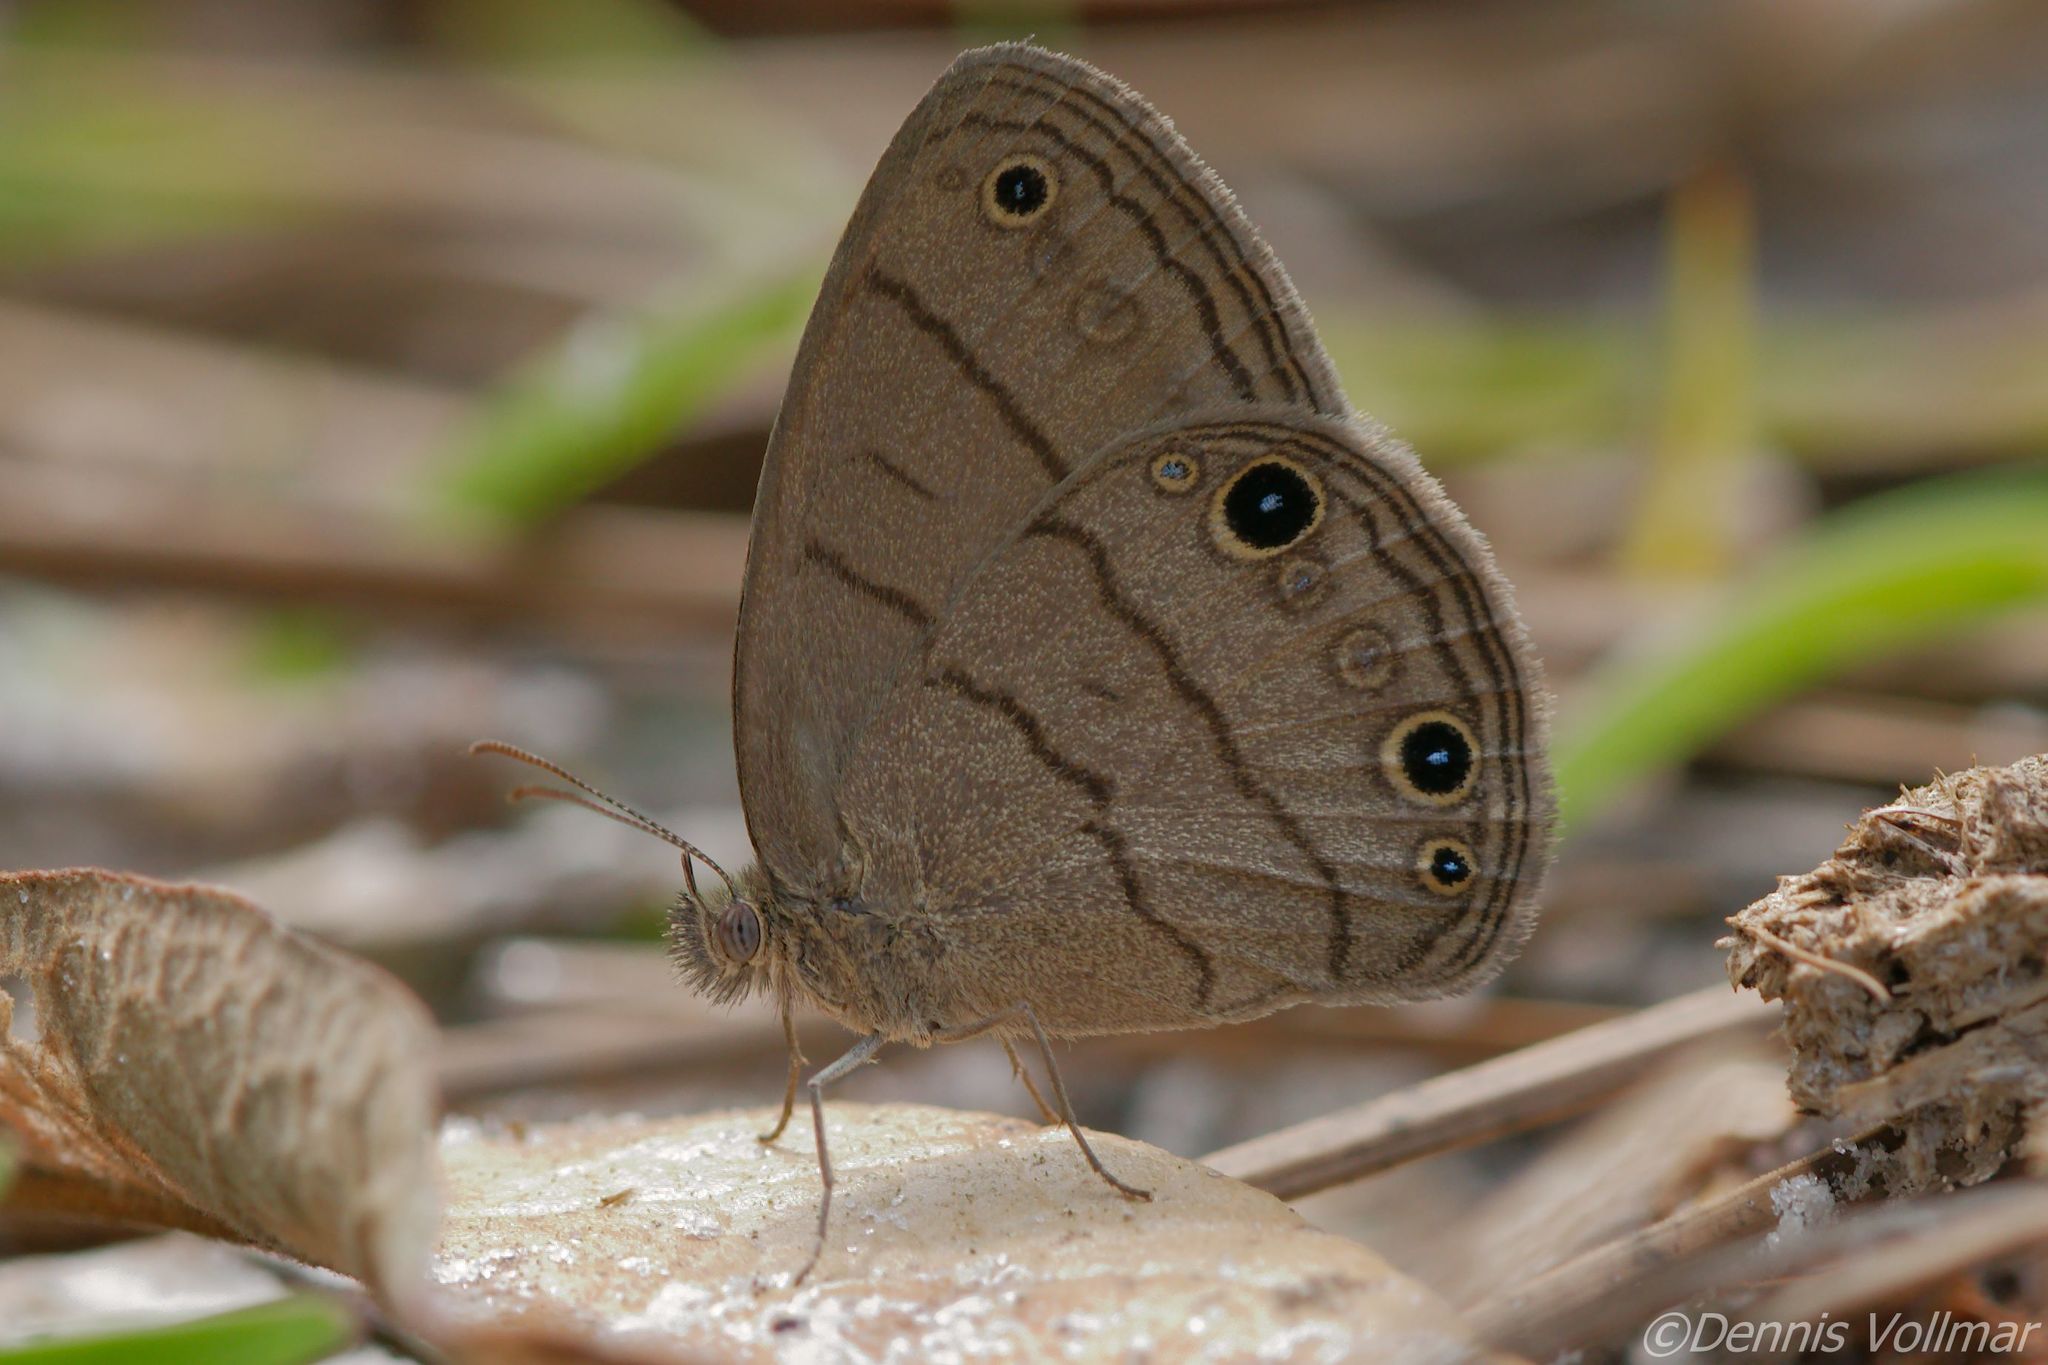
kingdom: Animalia
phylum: Arthropoda
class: Insecta
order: Lepidoptera
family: Nymphalidae
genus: Hermeuptychia
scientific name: Hermeuptychia hermes
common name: Hermes satyr
